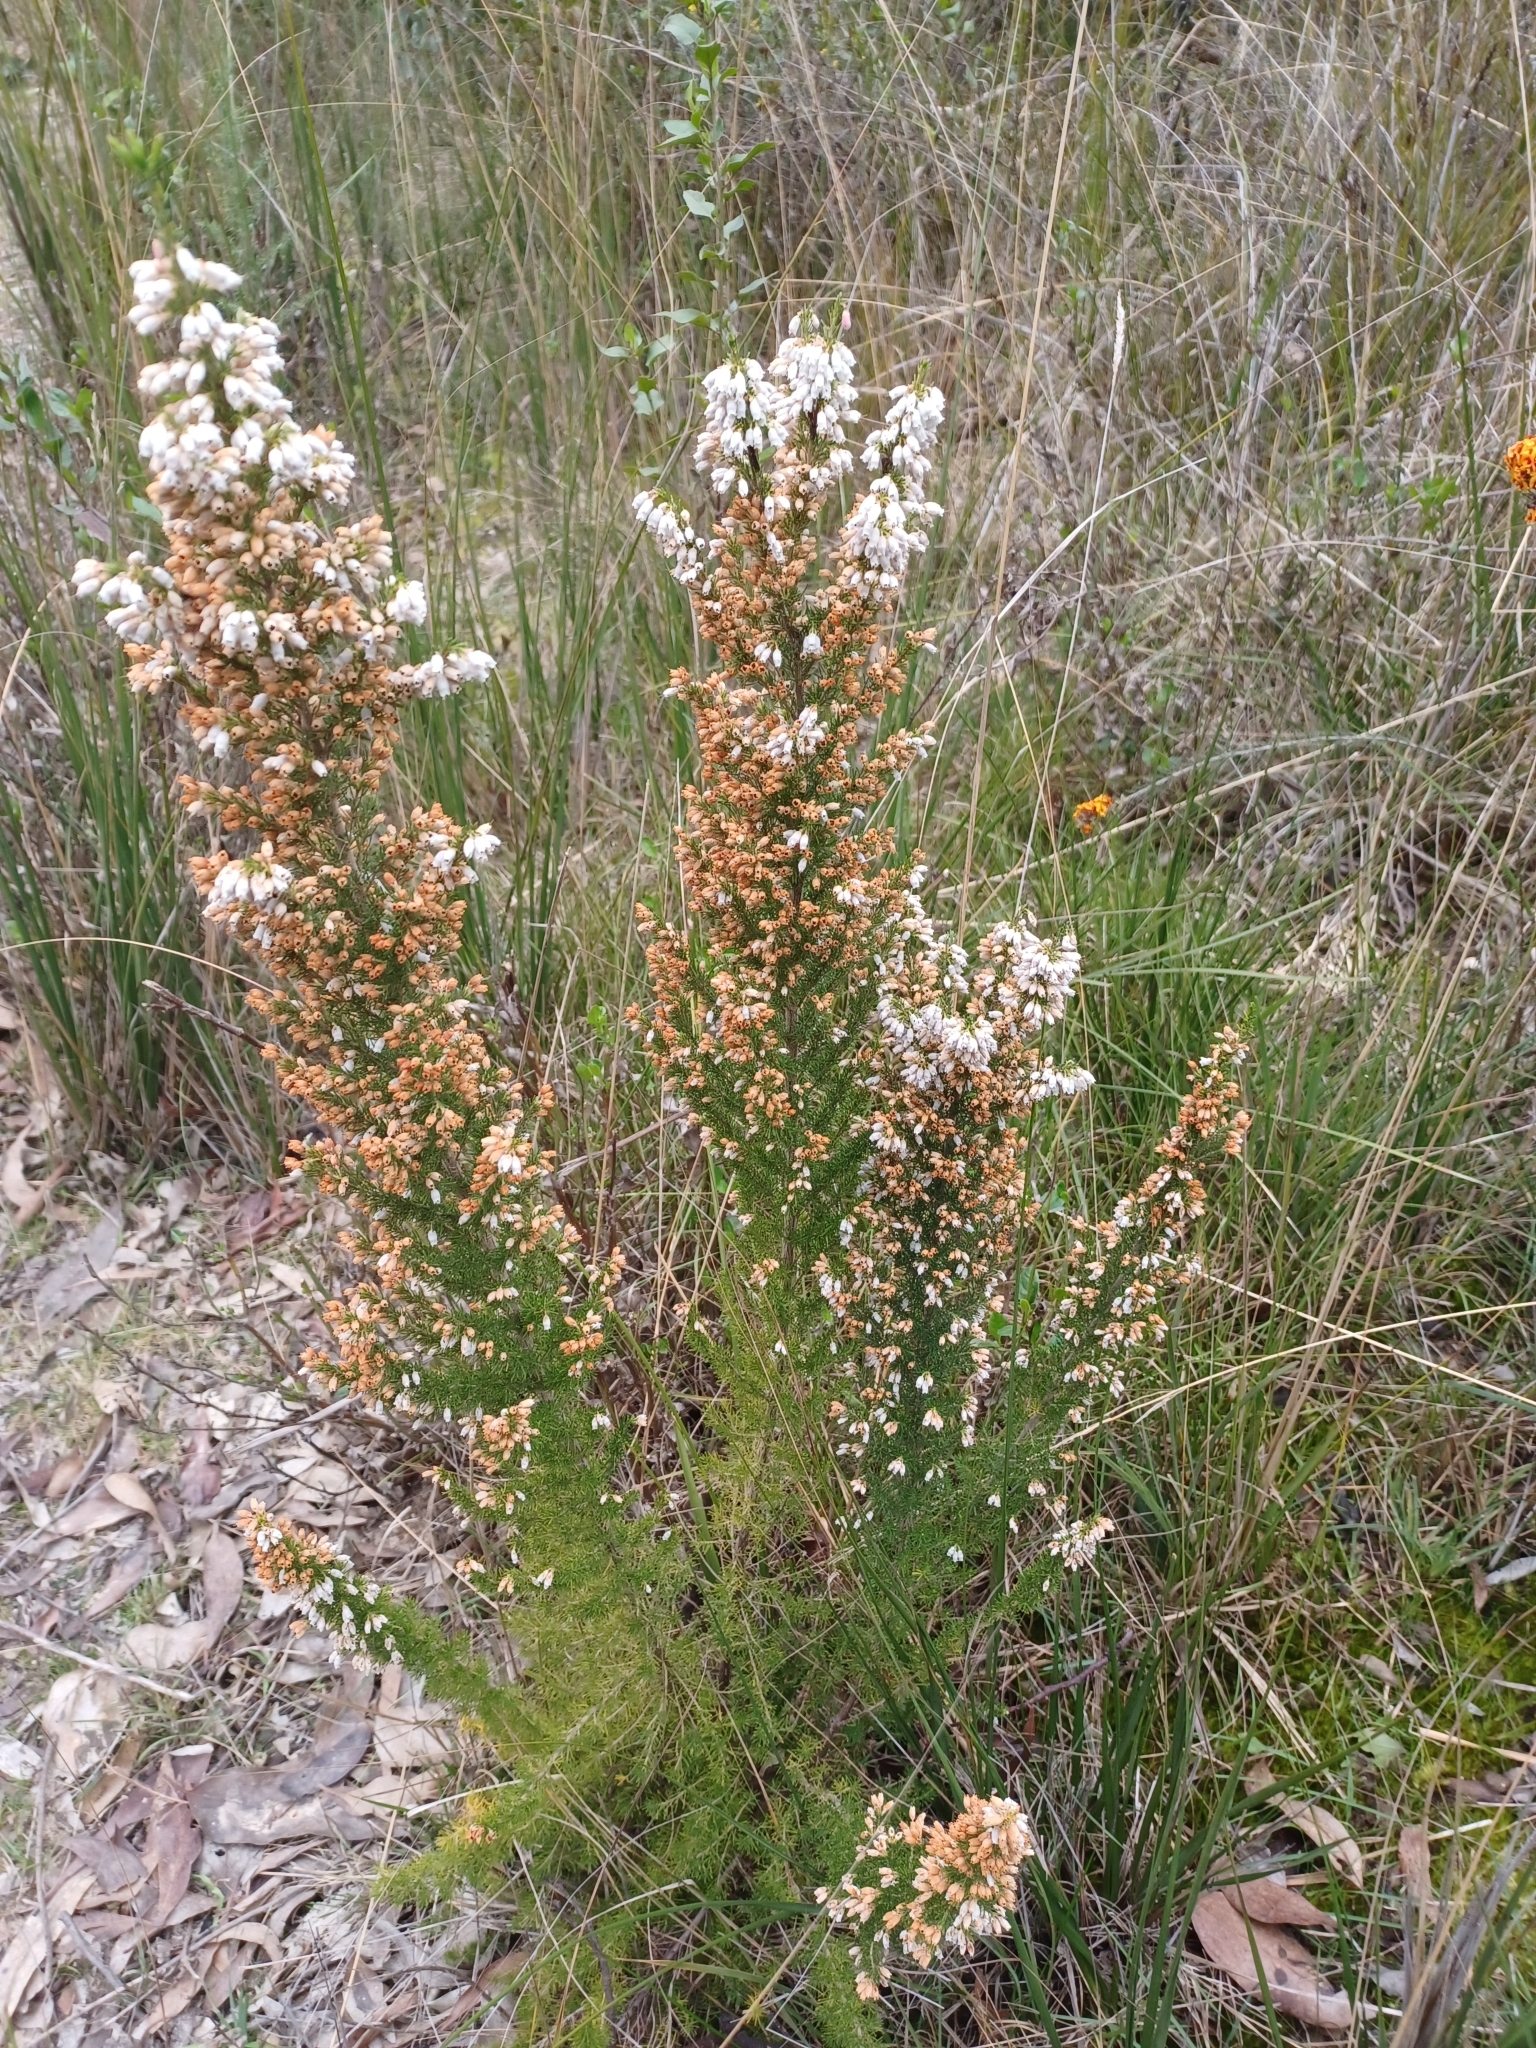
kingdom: Plantae
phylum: Tracheophyta
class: Magnoliopsida
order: Ericales
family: Ericaceae
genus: Erica
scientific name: Erica lusitanica
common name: Spanish heath
